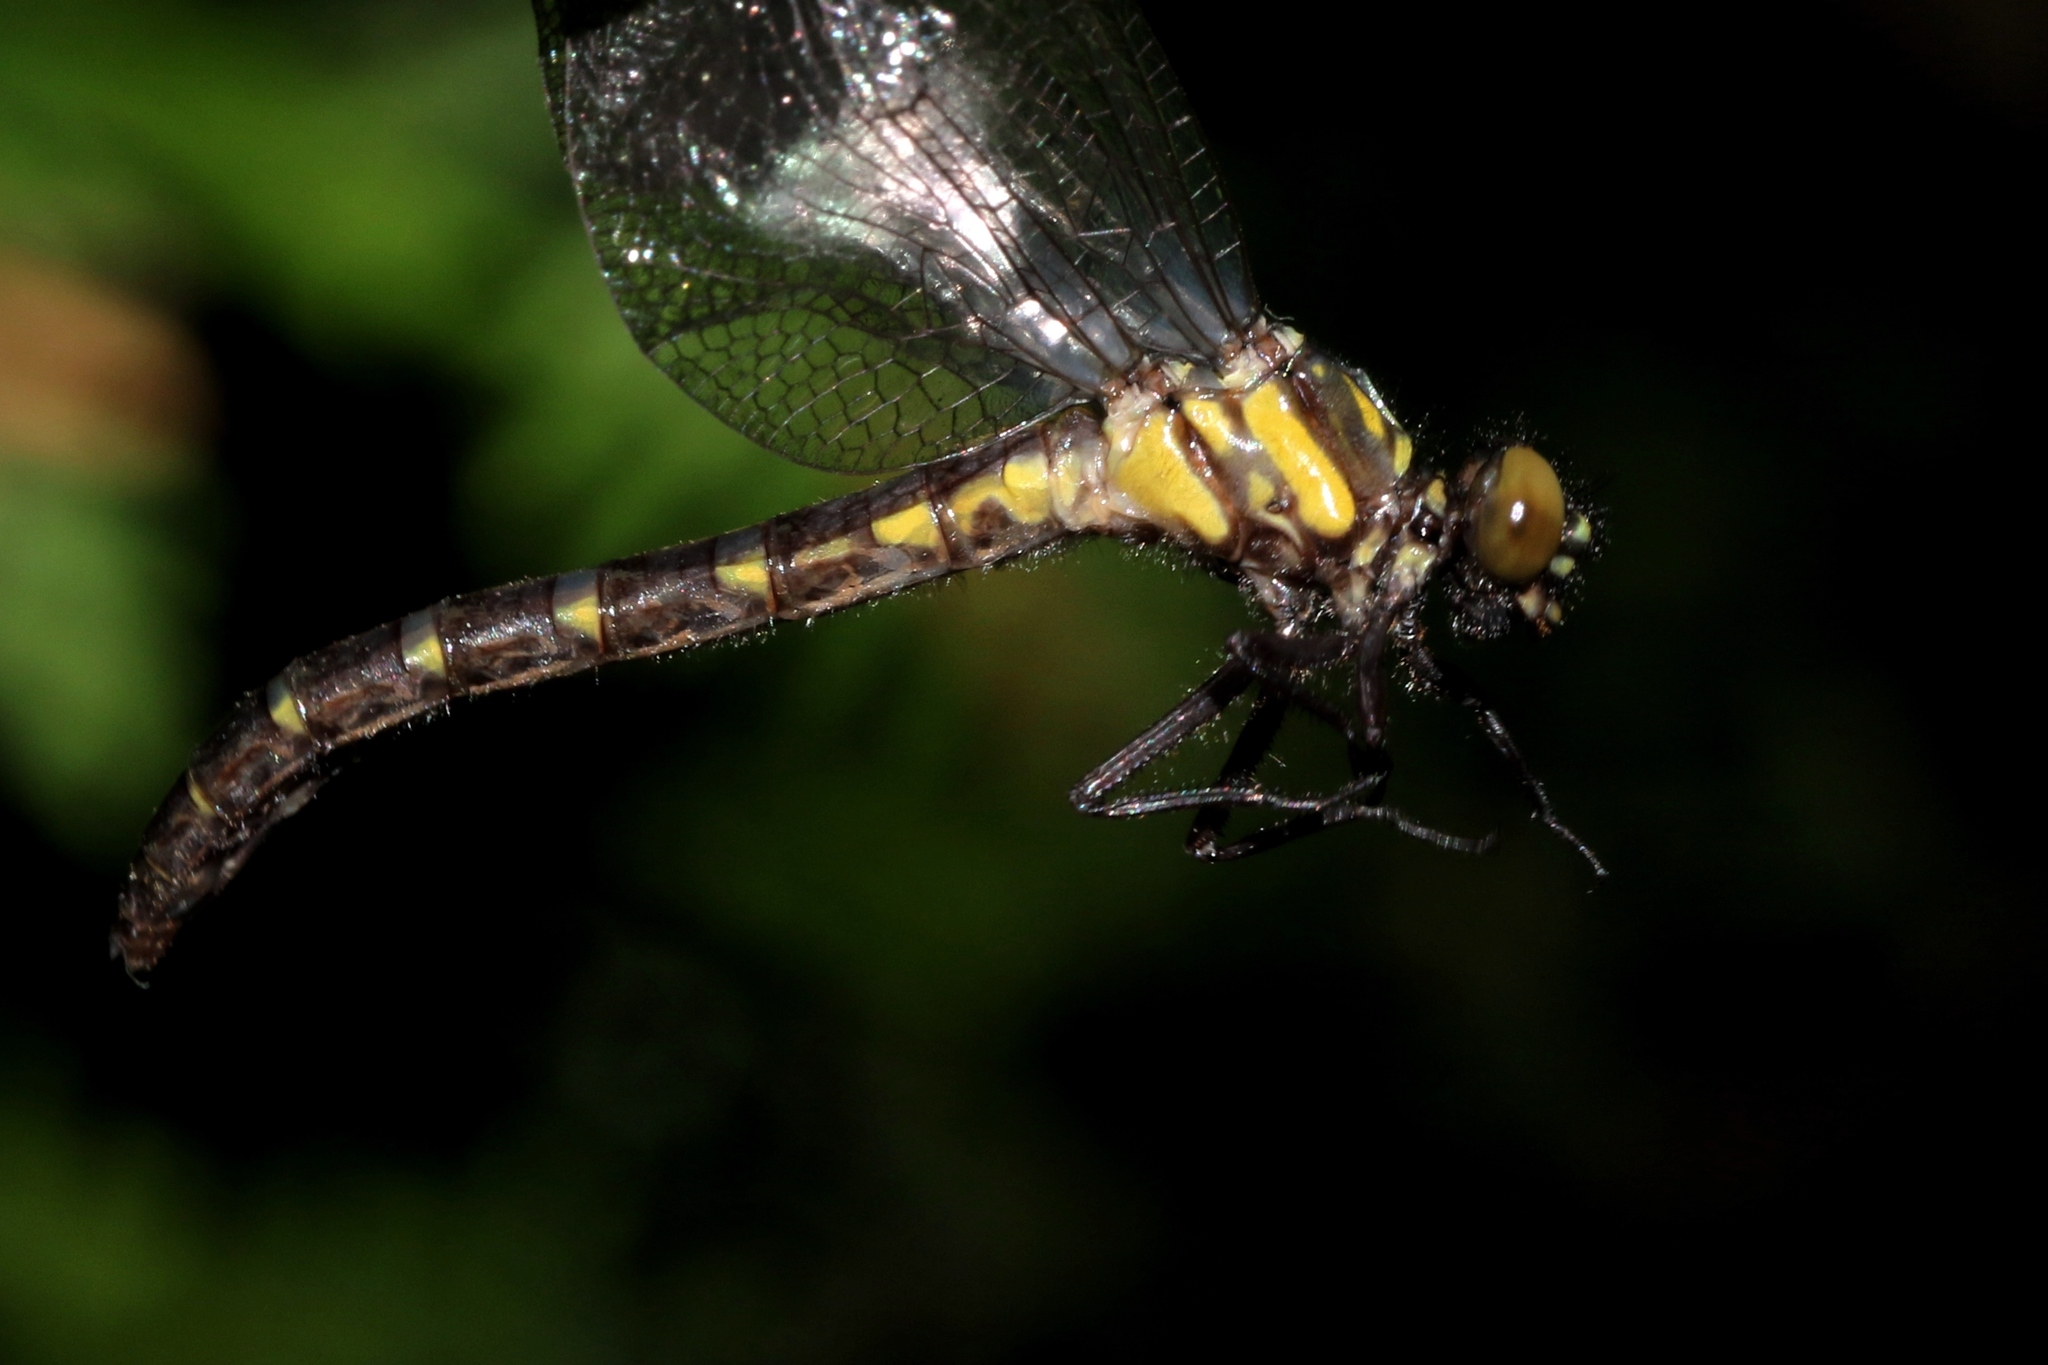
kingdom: Animalia
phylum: Arthropoda
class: Insecta
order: Odonata
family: Gomphidae
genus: Lanthus
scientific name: Lanthus parvulus
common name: Northern pygmy clubtail
